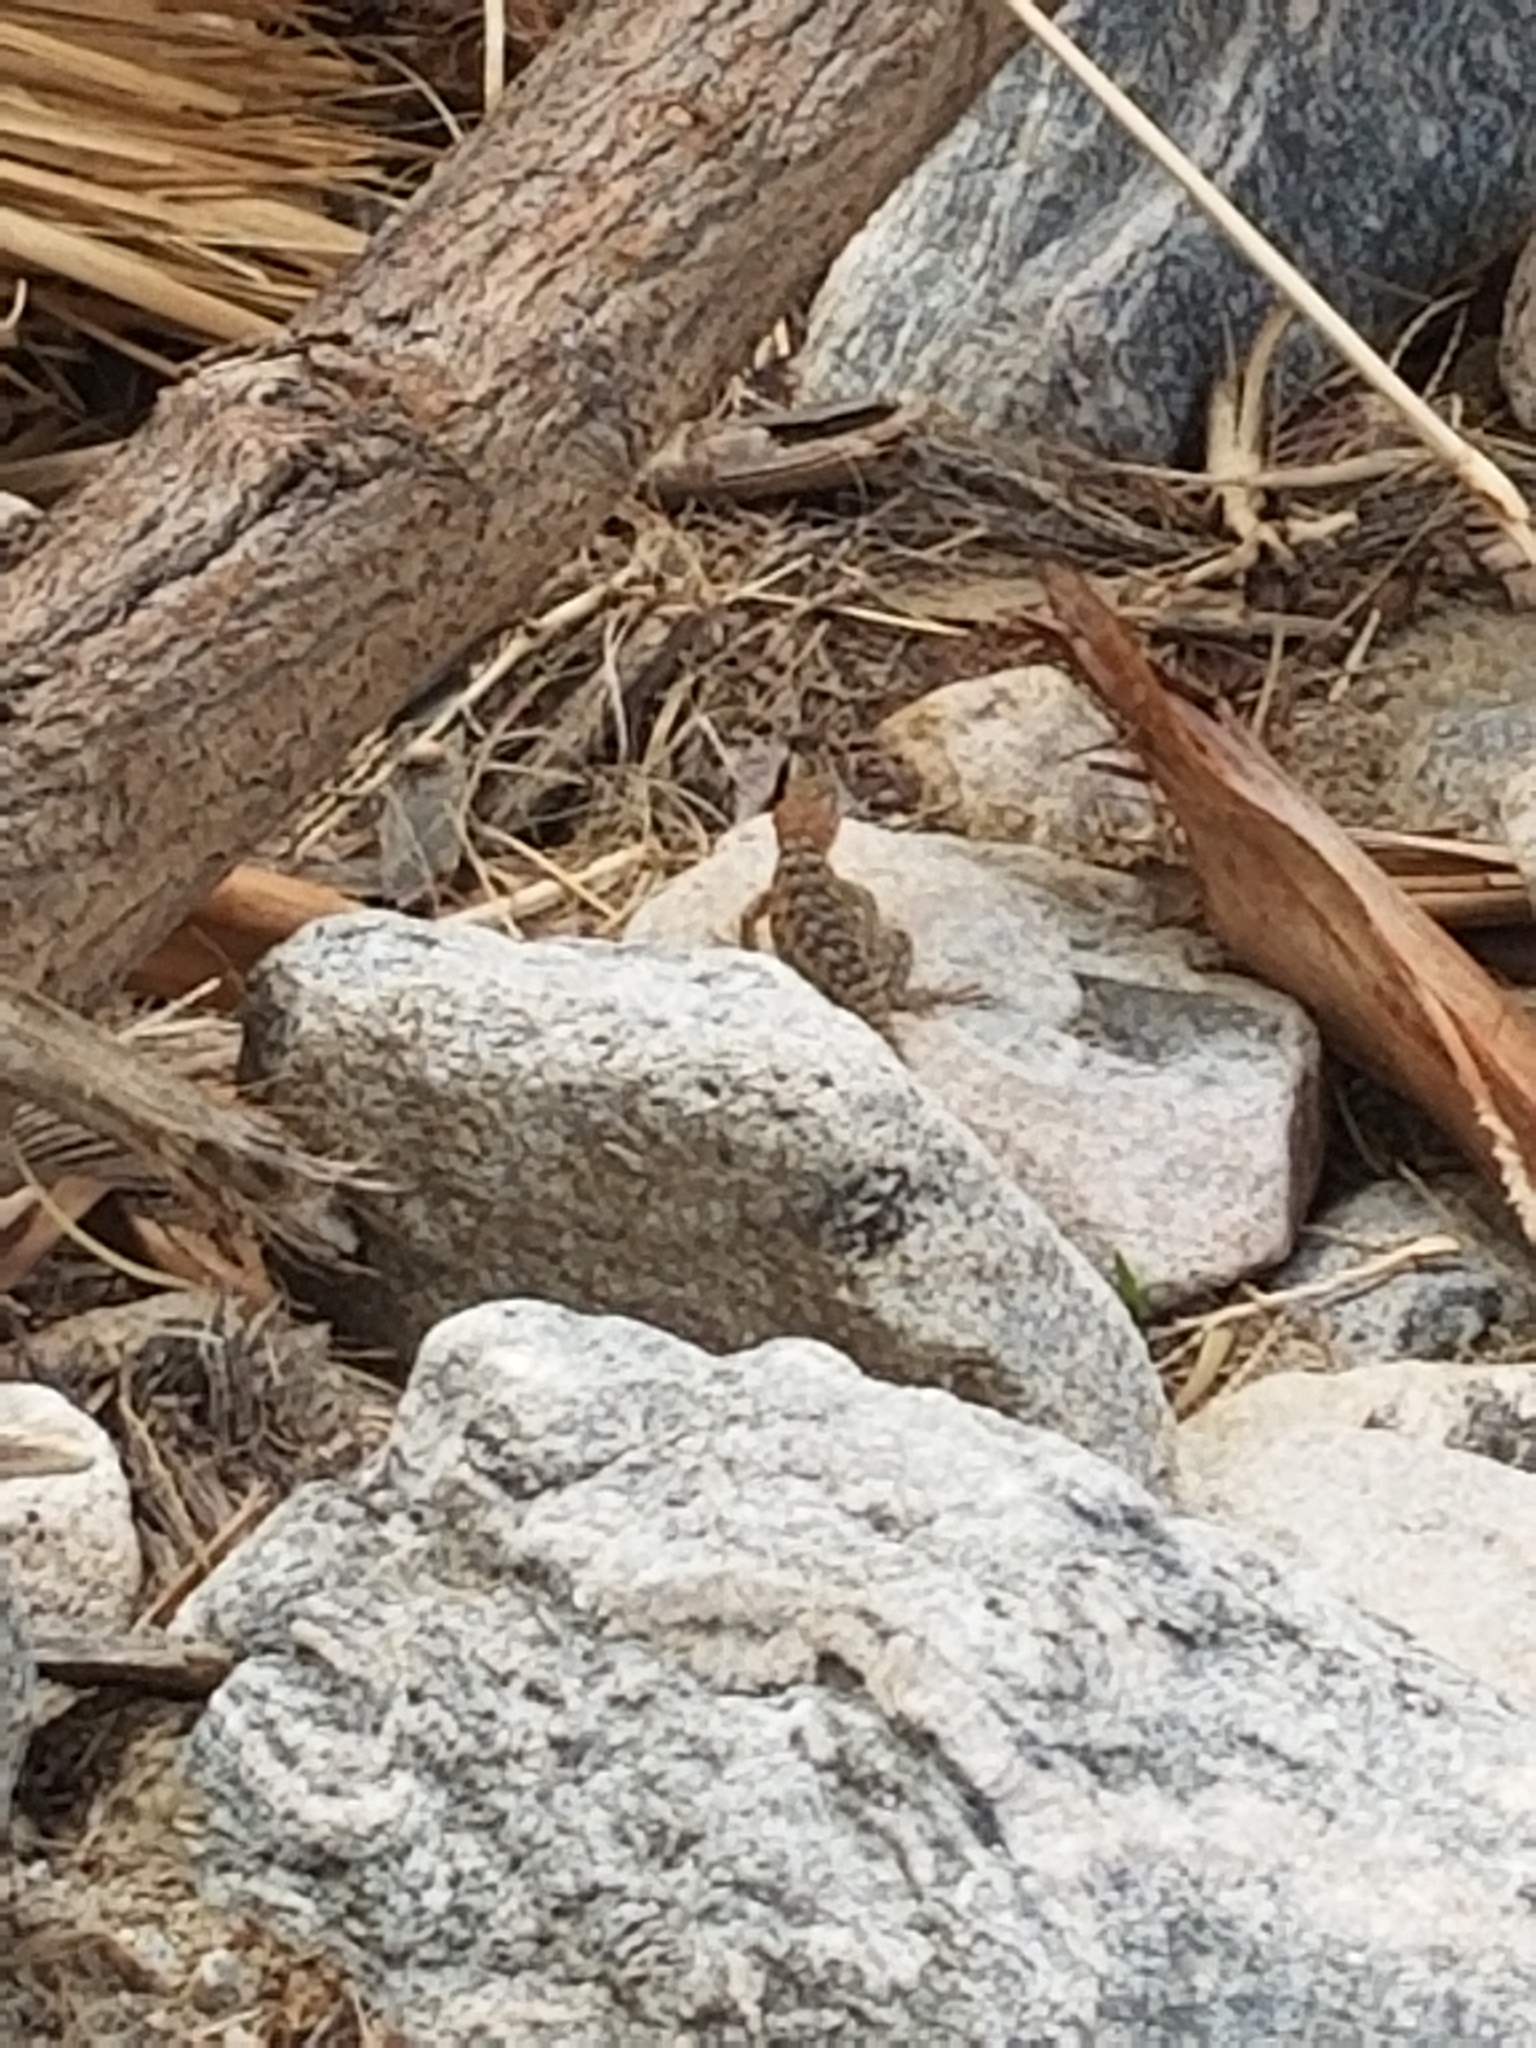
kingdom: Animalia
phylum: Chordata
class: Squamata
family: Phrynosomatidae
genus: Sceloporus
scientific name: Sceloporus magister
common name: Desert spiny lizard
